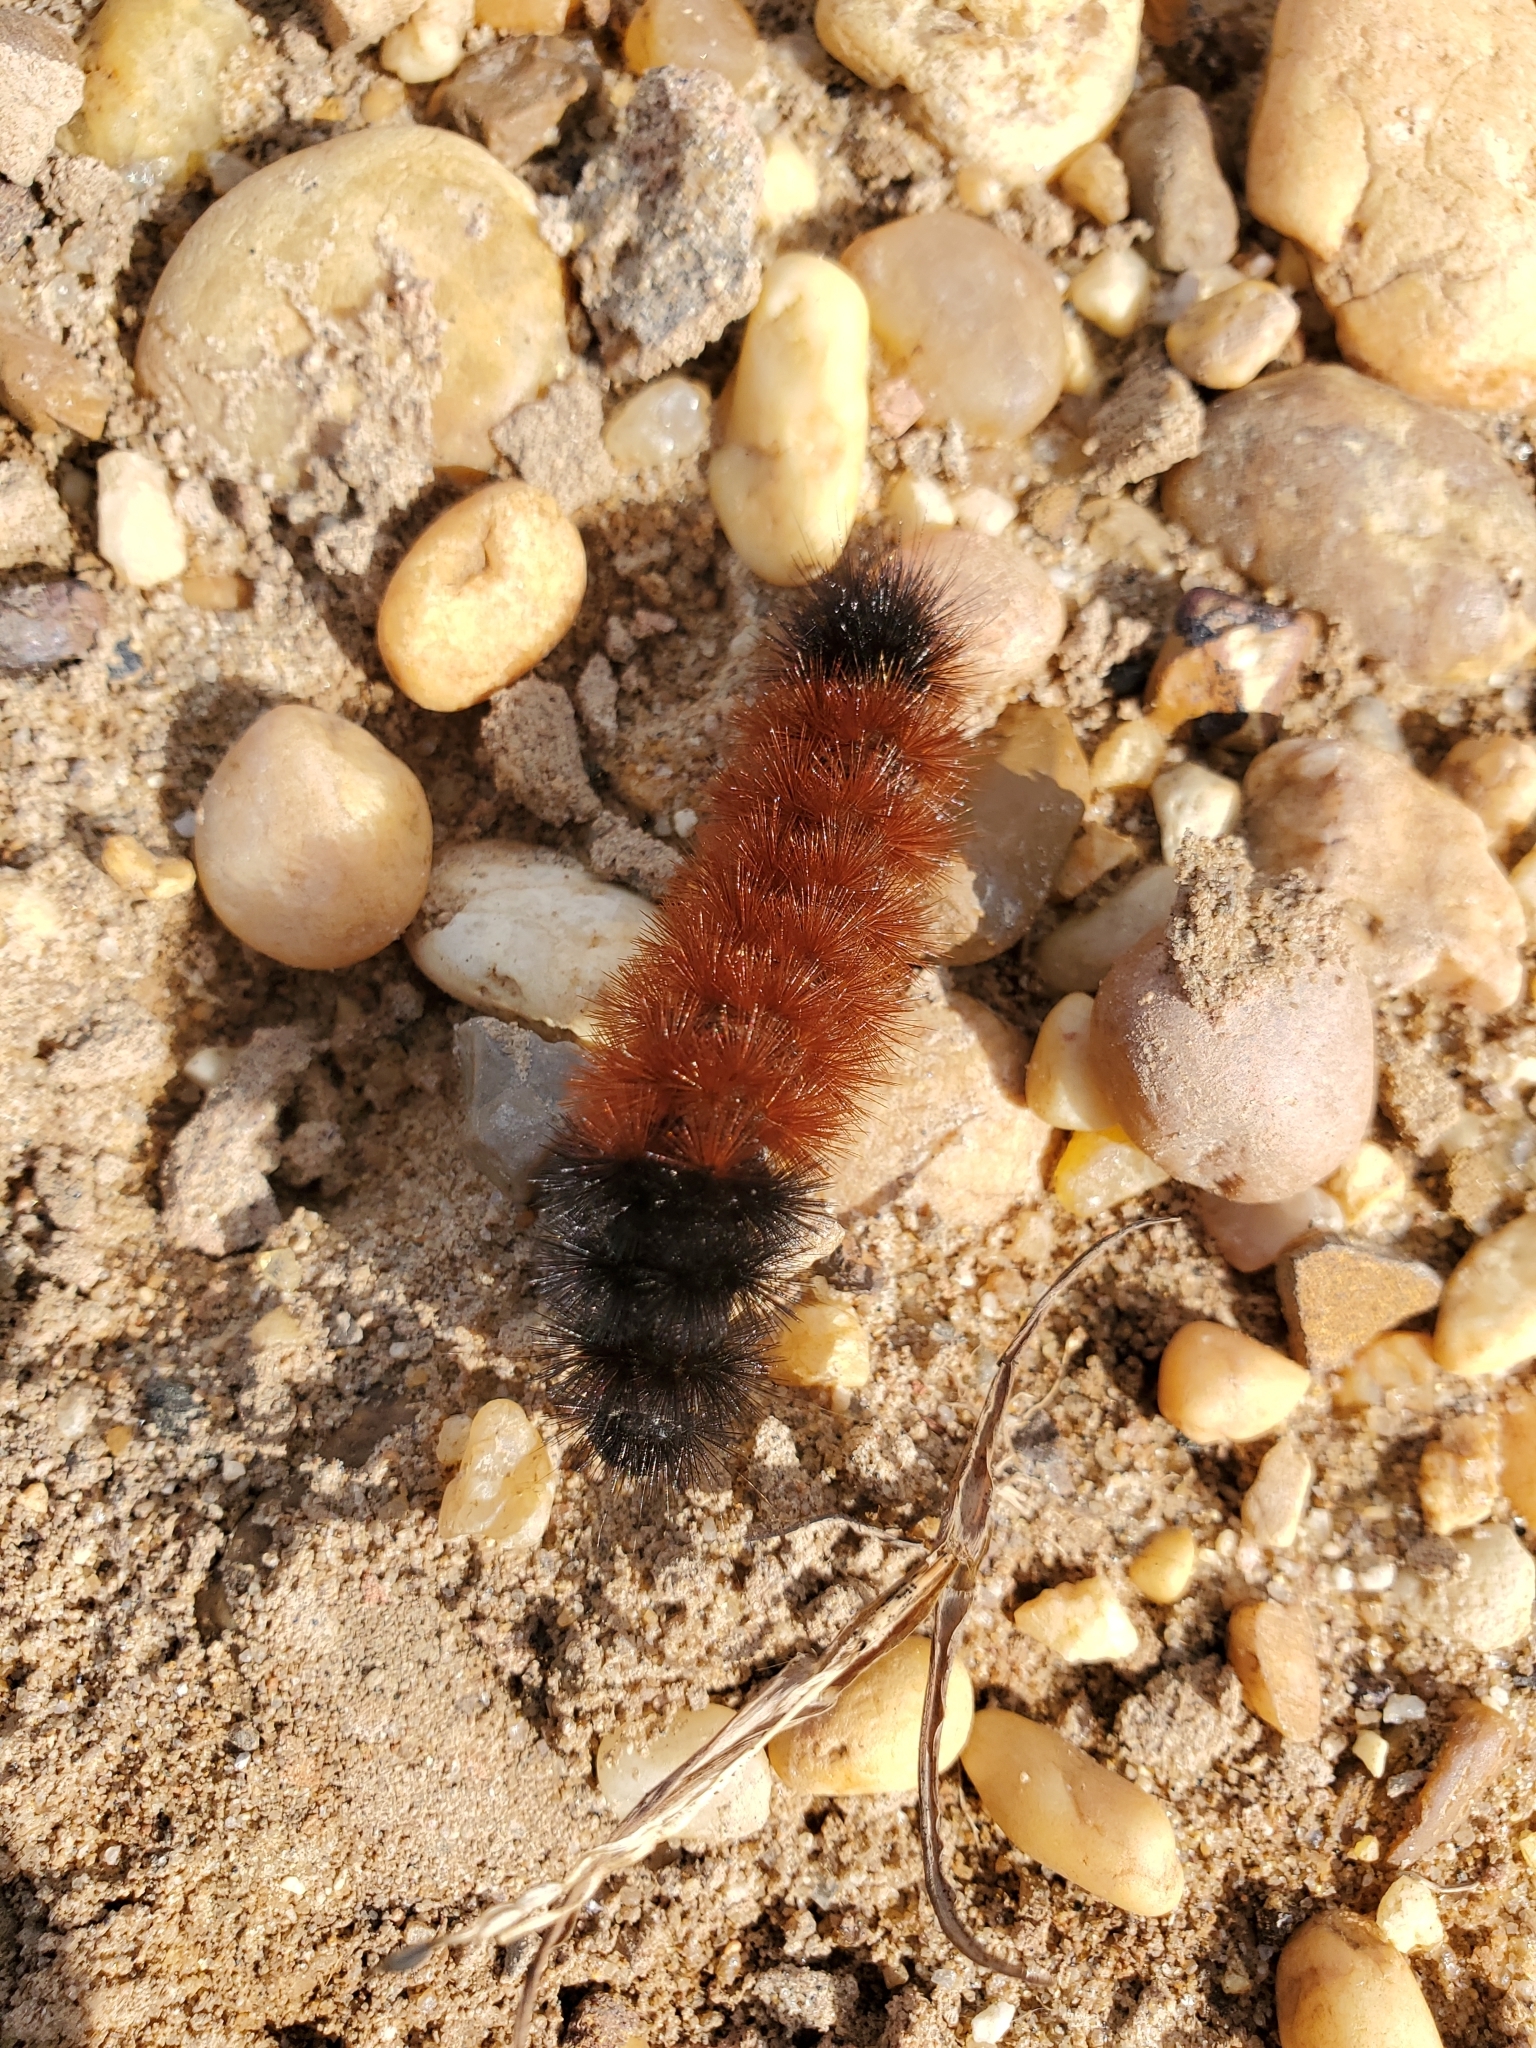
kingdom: Animalia
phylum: Arthropoda
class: Insecta
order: Lepidoptera
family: Erebidae
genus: Pyrrharctia
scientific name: Pyrrharctia isabella
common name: Isabella tiger moth
